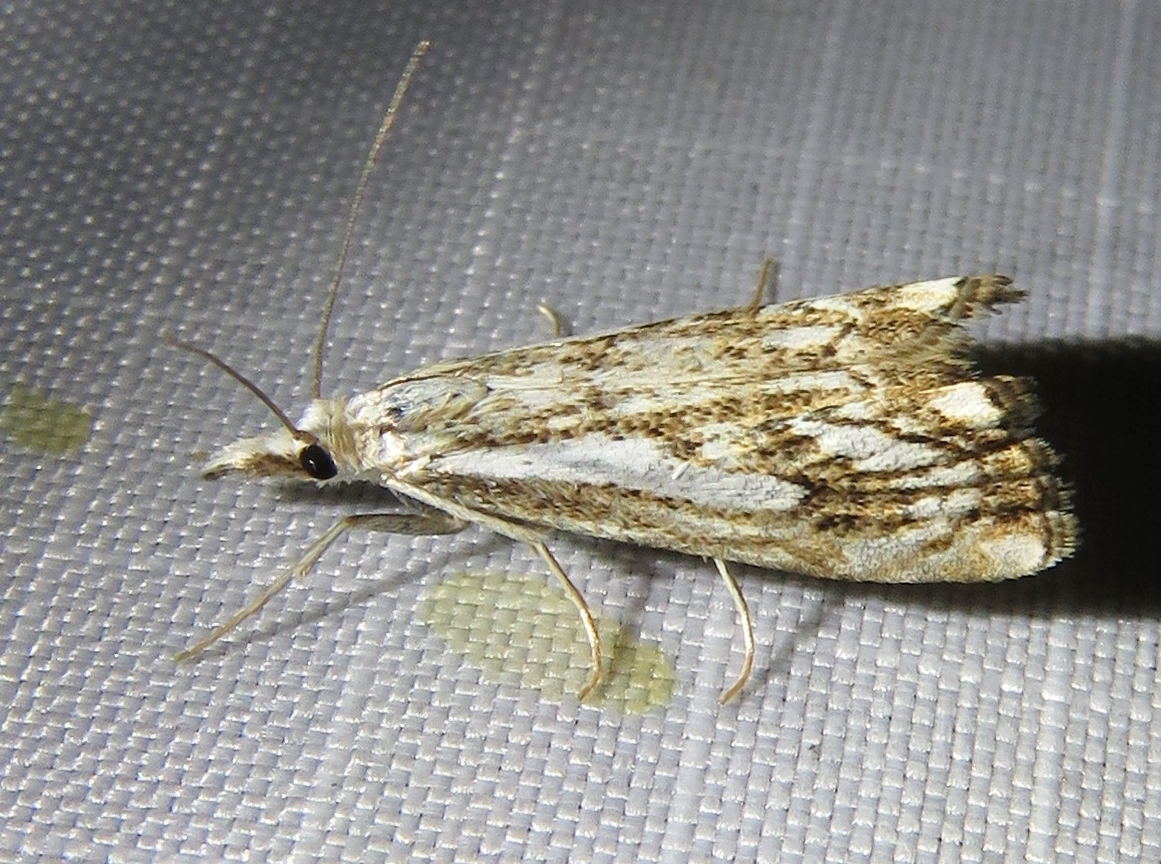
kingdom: Animalia
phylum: Arthropoda
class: Insecta
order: Lepidoptera
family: Crambidae
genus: Catoptria
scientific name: Catoptria falsella
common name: Chequered grass-veneer
